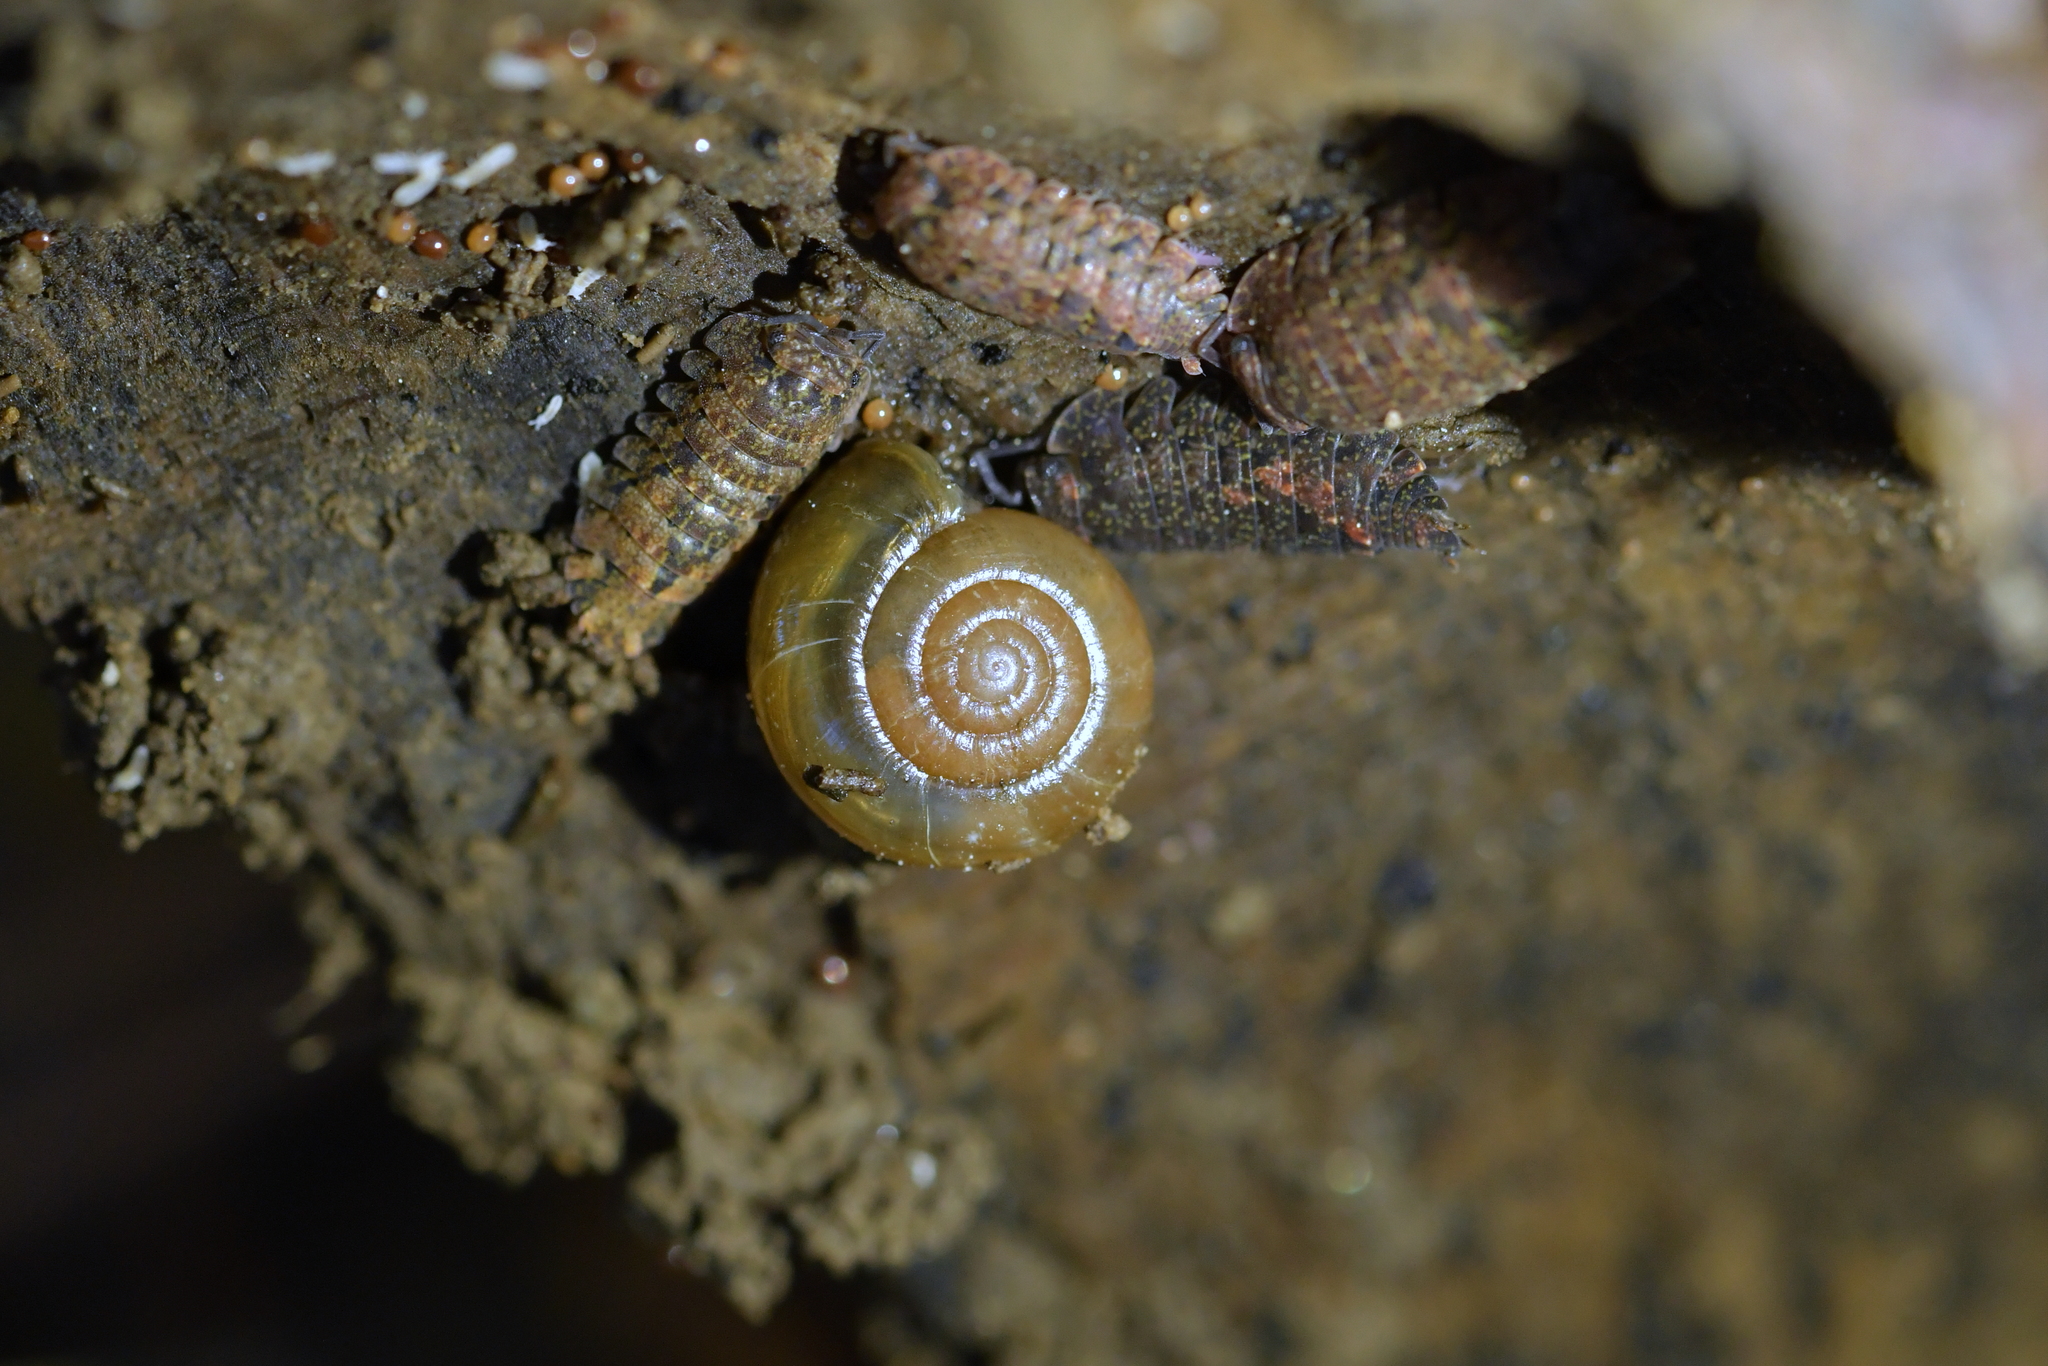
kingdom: Animalia
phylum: Mollusca
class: Gastropoda
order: Stylommatophora
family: Oxychilidae
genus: Oxychilus
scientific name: Oxychilus draparnaudi
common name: Draparnaud's glass snail
